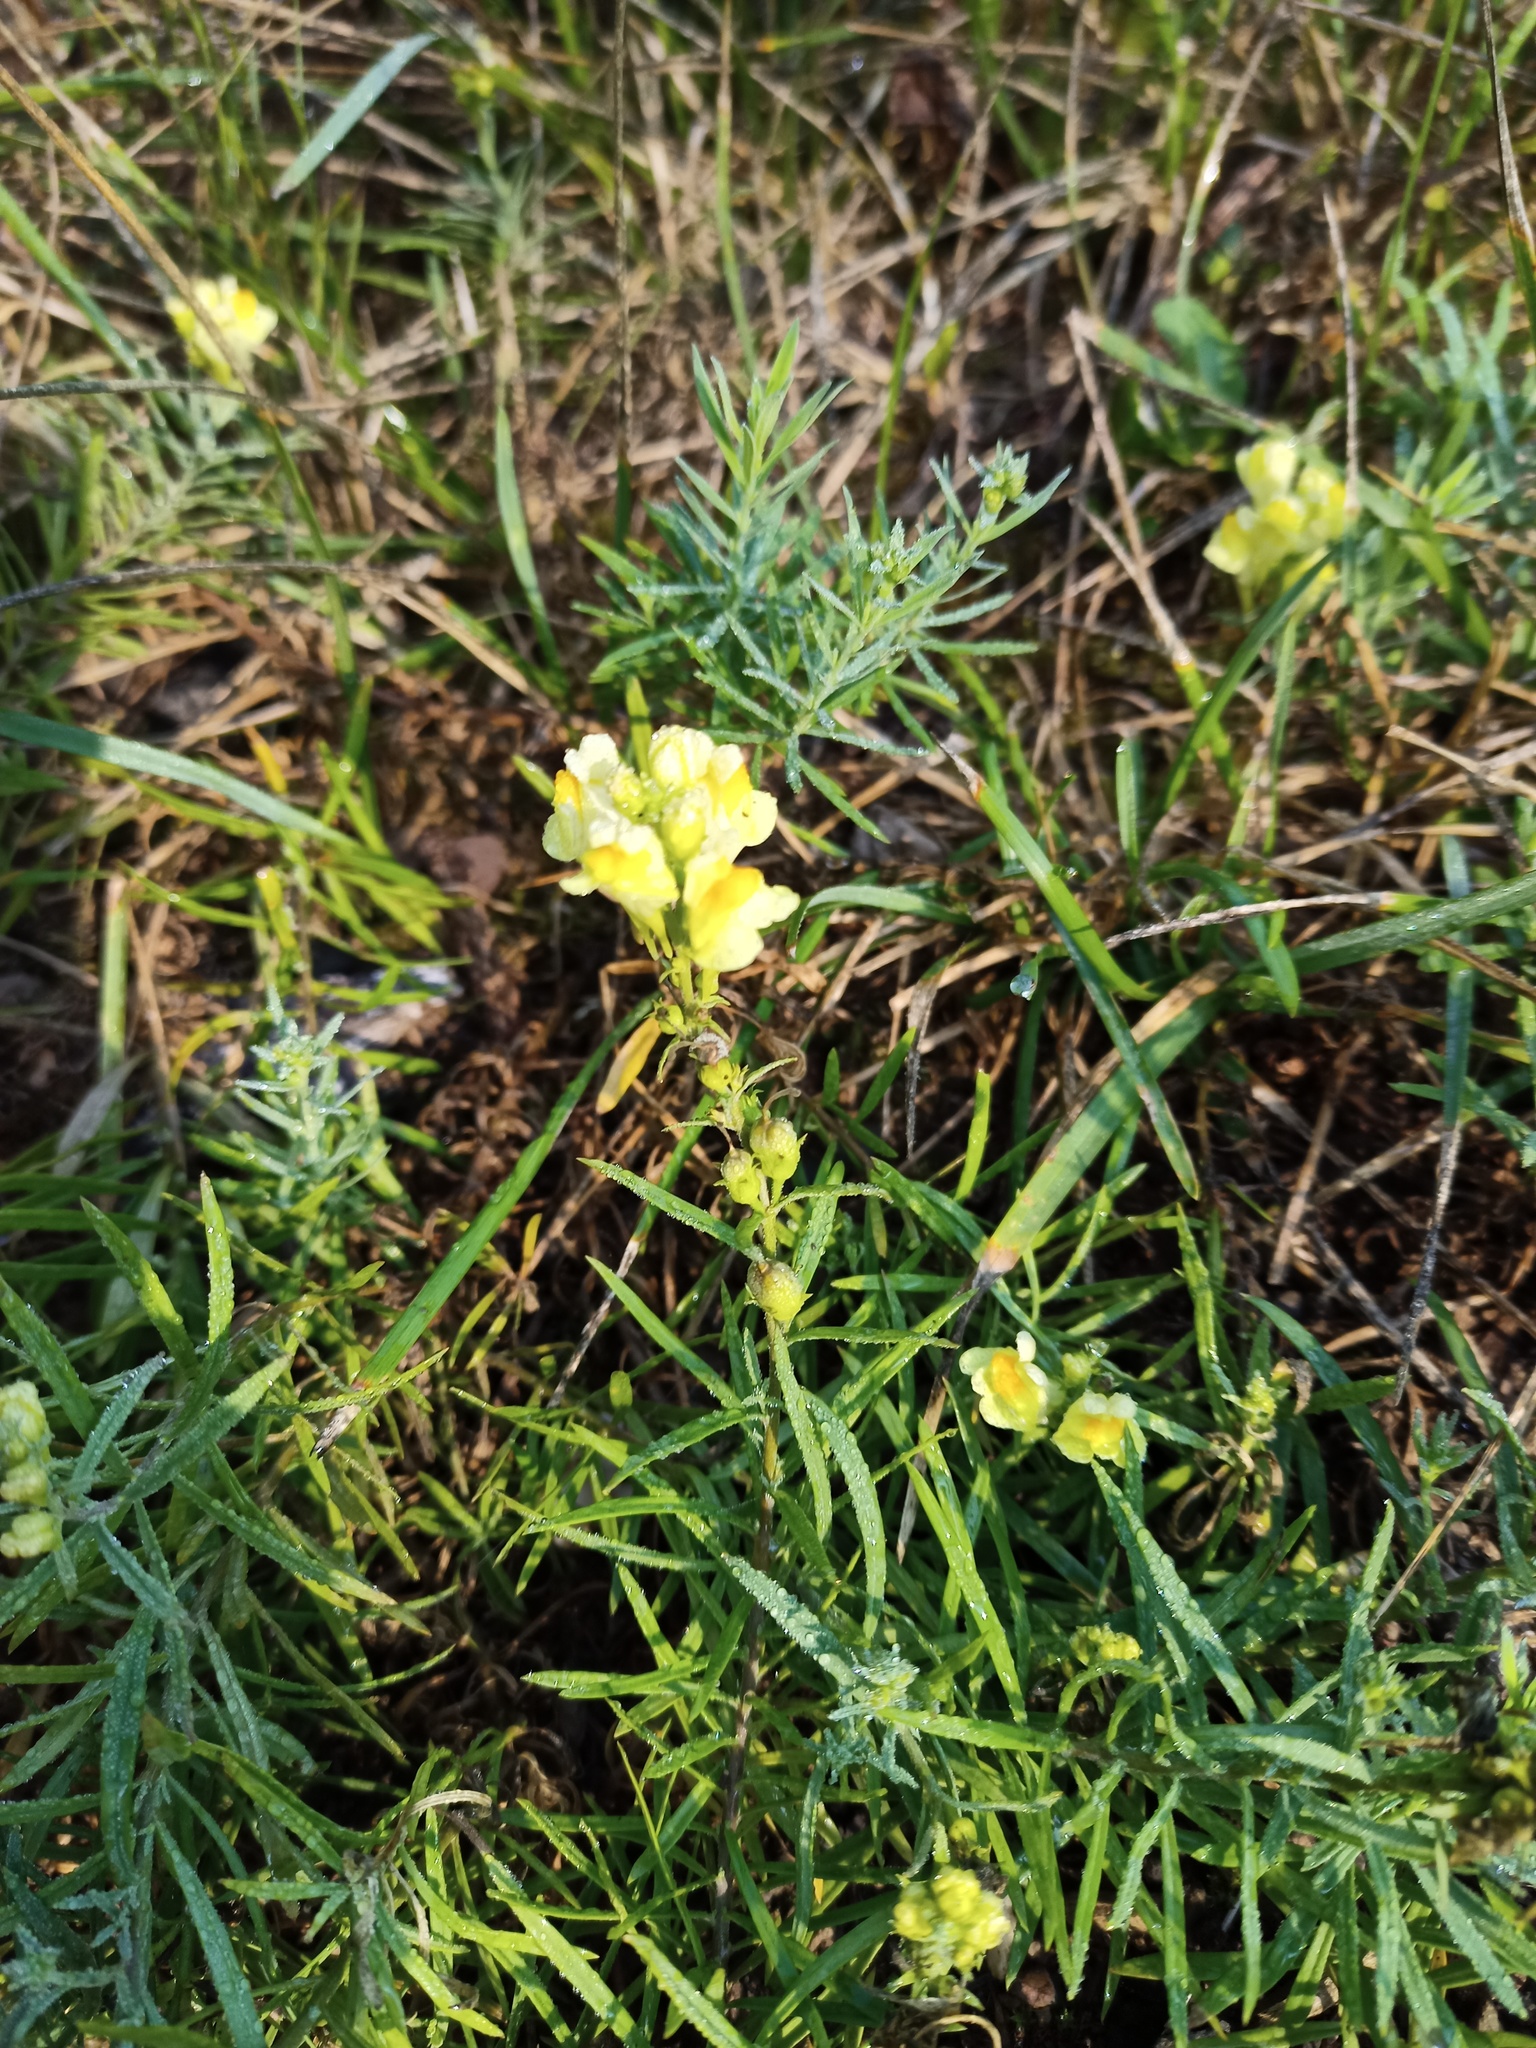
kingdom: Plantae
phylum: Tracheophyta
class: Magnoliopsida
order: Lamiales
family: Plantaginaceae
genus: Linaria
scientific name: Linaria vulgaris
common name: Butter and eggs
